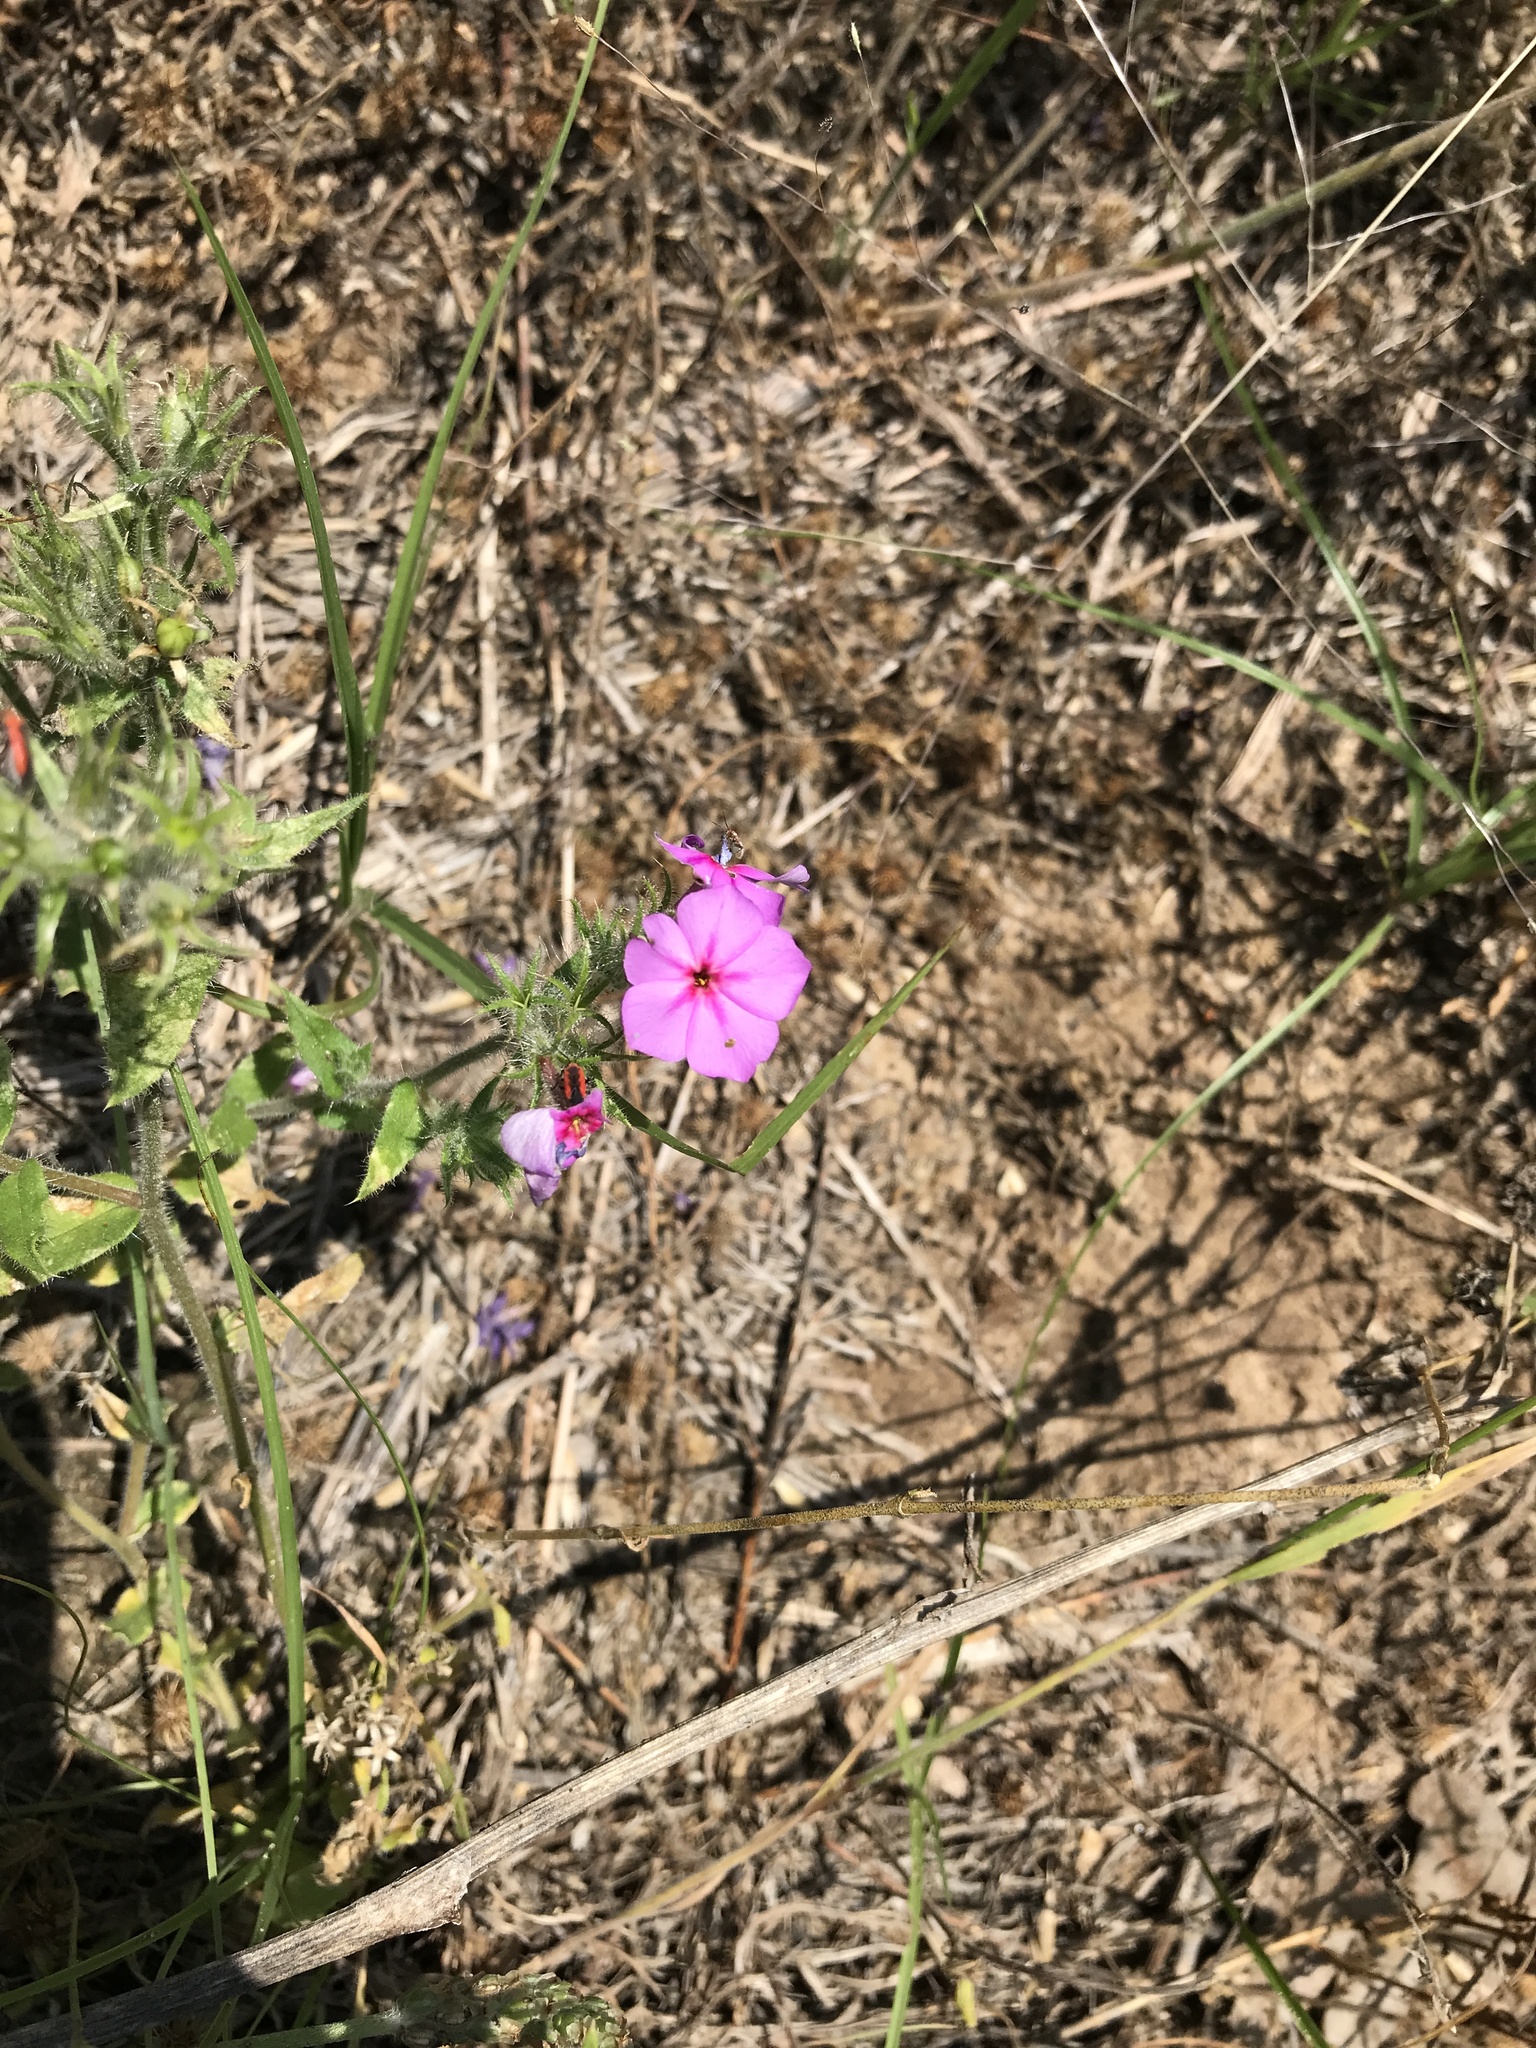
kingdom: Plantae
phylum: Tracheophyta
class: Magnoliopsida
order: Ericales
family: Polemoniaceae
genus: Phlox
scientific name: Phlox drummondii
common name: Drummond's phlox
